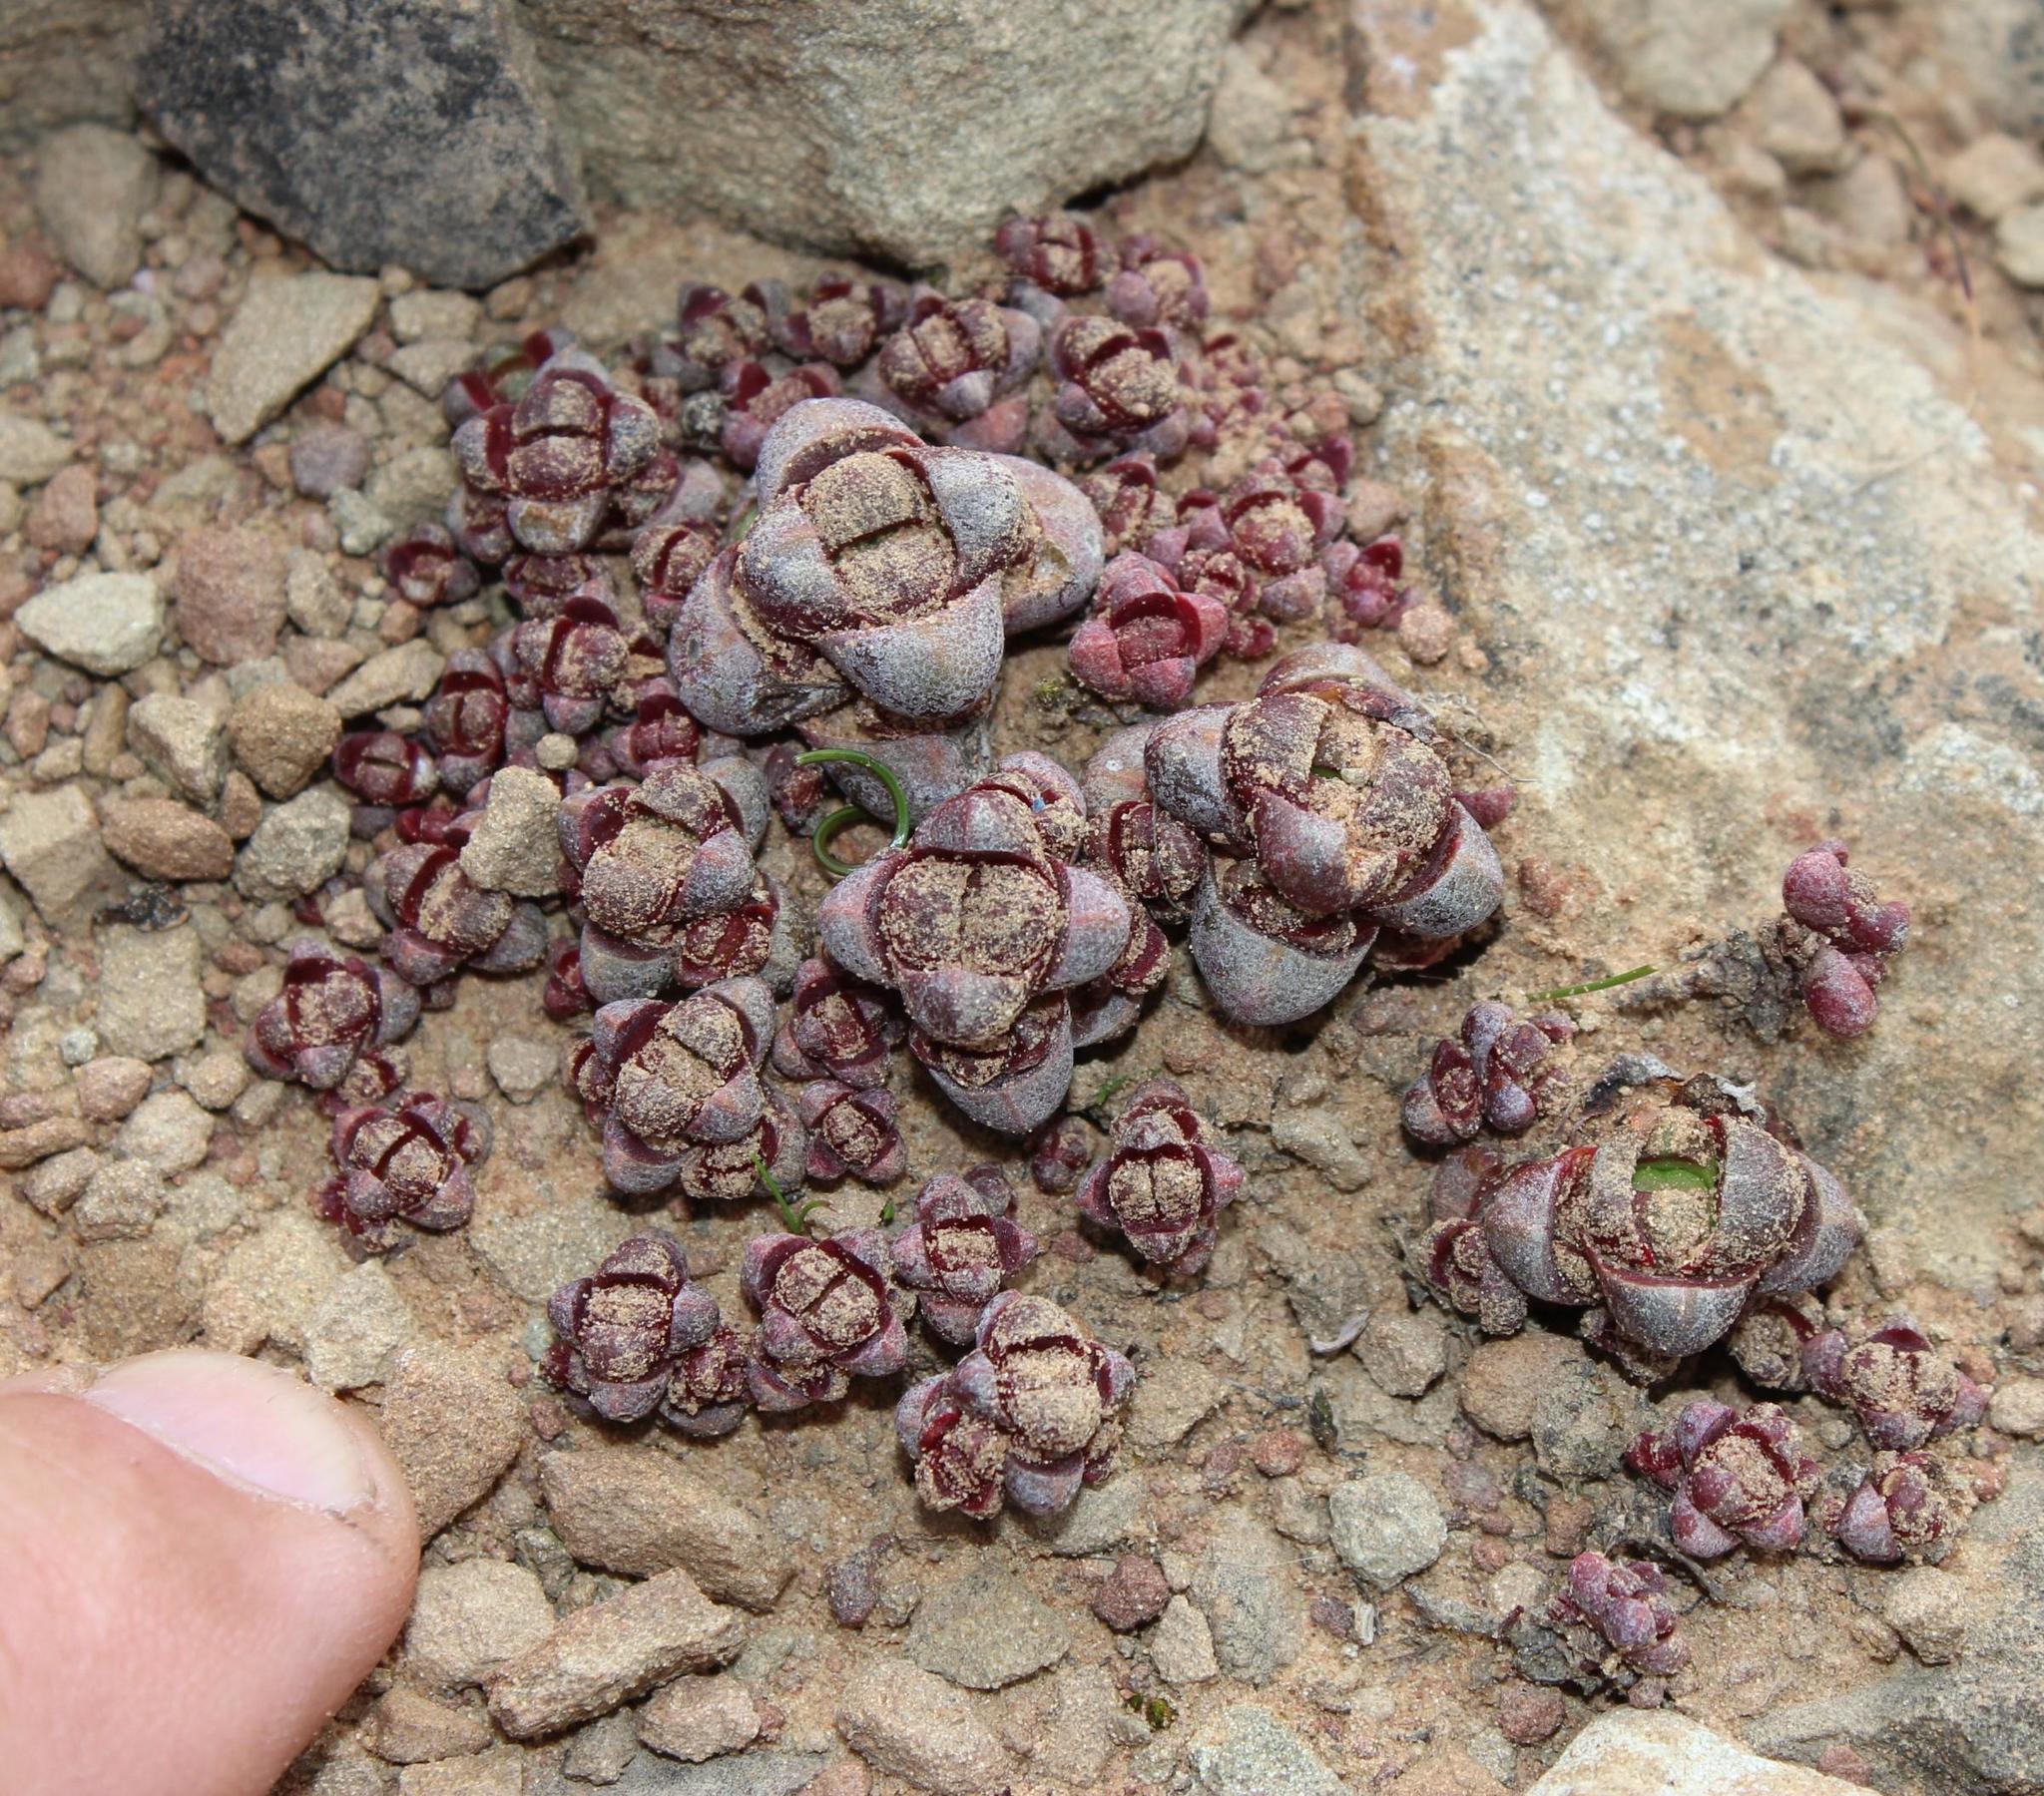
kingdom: Plantae
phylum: Tracheophyta
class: Magnoliopsida
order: Saxifragales
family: Crassulaceae
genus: Crassula
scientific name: Crassula columnaris
